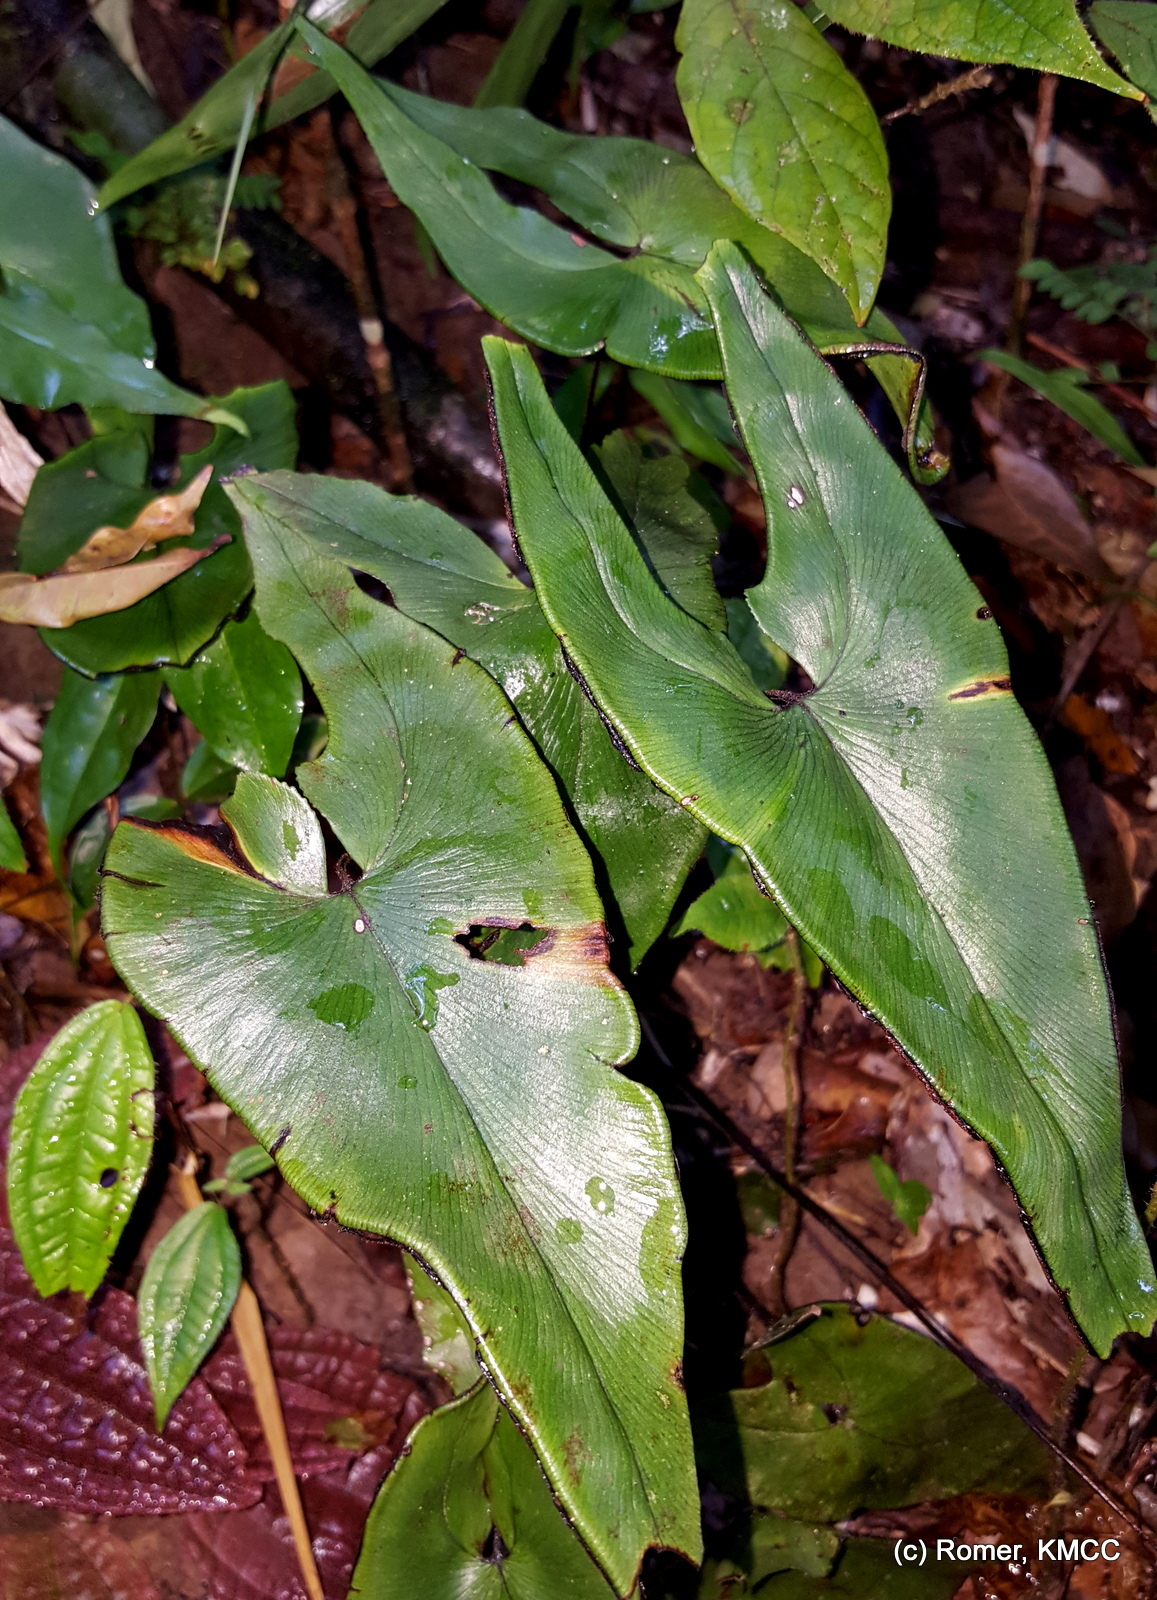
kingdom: Plantae
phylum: Tracheophyta
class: Polypodiopsida
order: Polypodiales
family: Pteridaceae
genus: Adiantum
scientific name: Adiantum phanerophlebium
